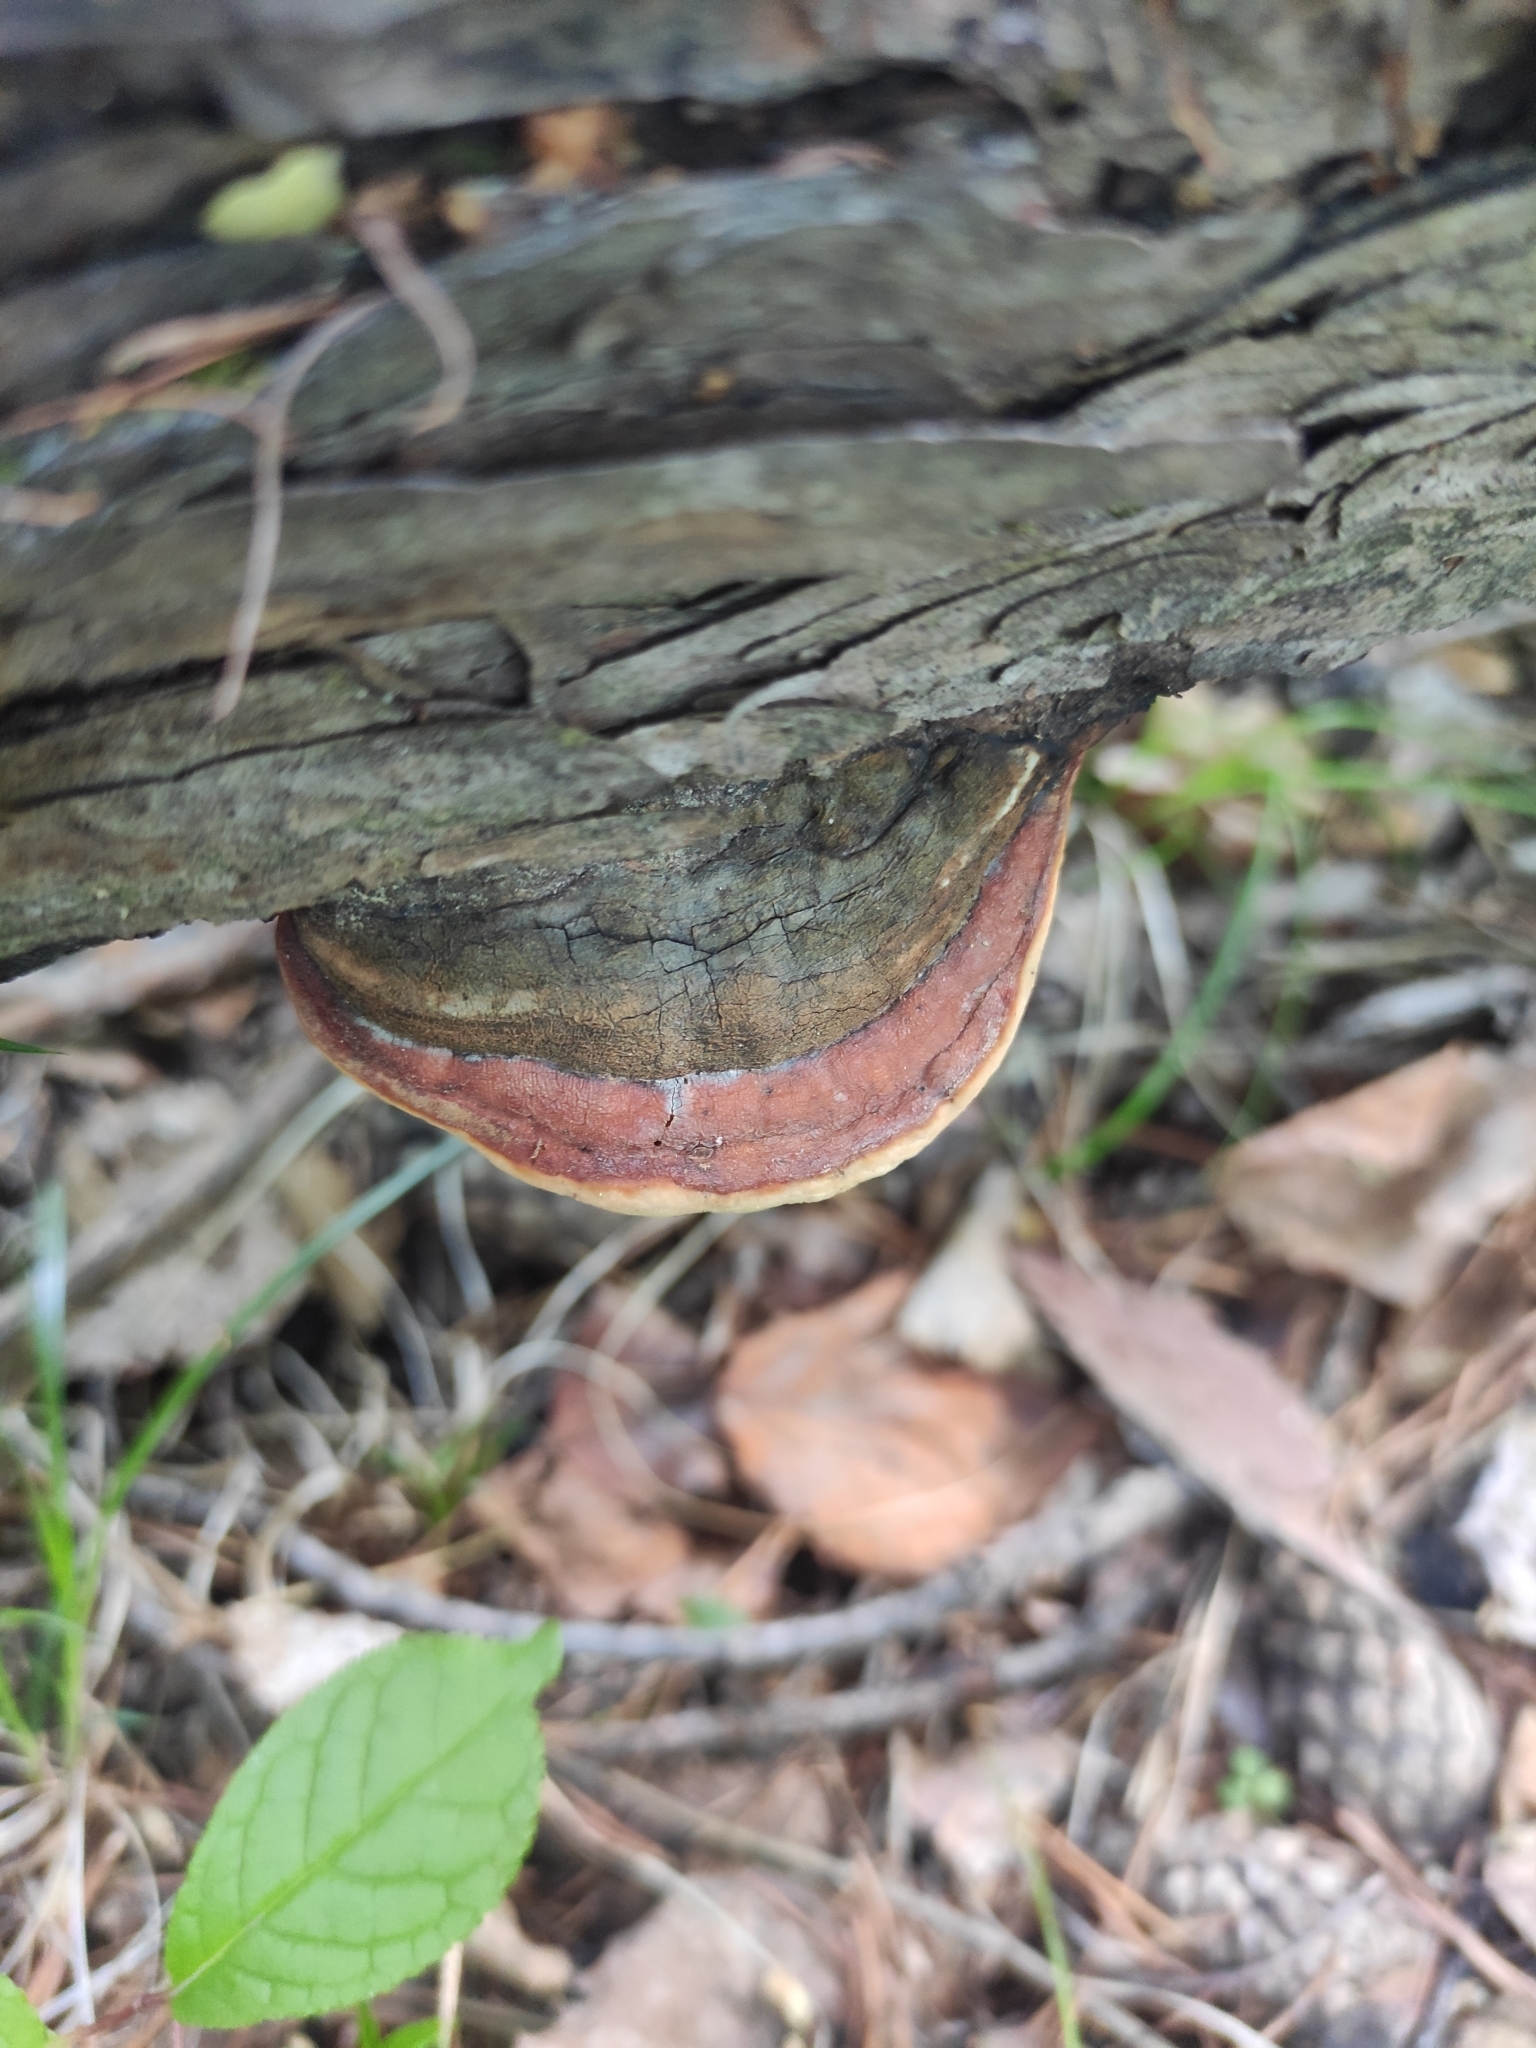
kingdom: Fungi
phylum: Basidiomycota
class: Agaricomycetes
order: Polyporales
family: Fomitopsidaceae
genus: Fomitopsis
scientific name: Fomitopsis pinicola
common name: Red-belted bracket
